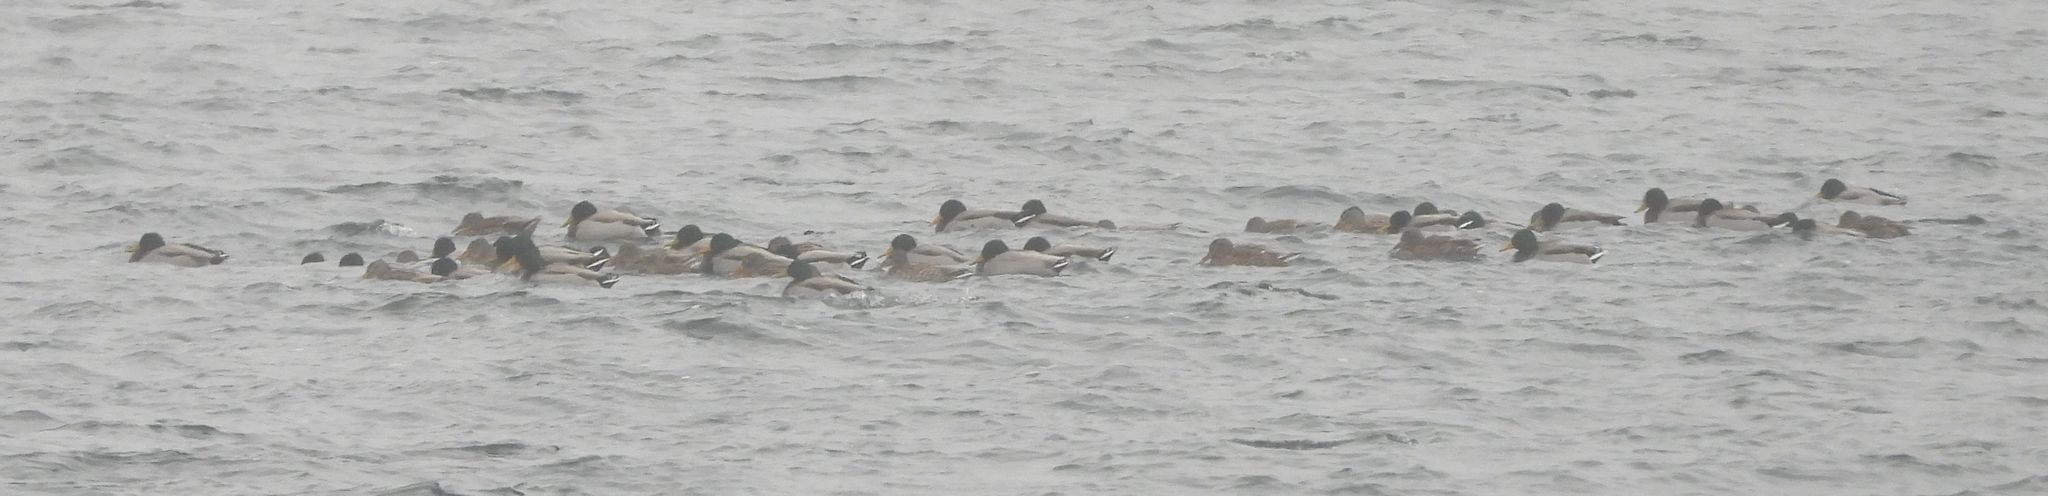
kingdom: Animalia
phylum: Chordata
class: Aves
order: Anseriformes
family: Anatidae
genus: Anas
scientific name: Anas platyrhynchos
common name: Mallard
